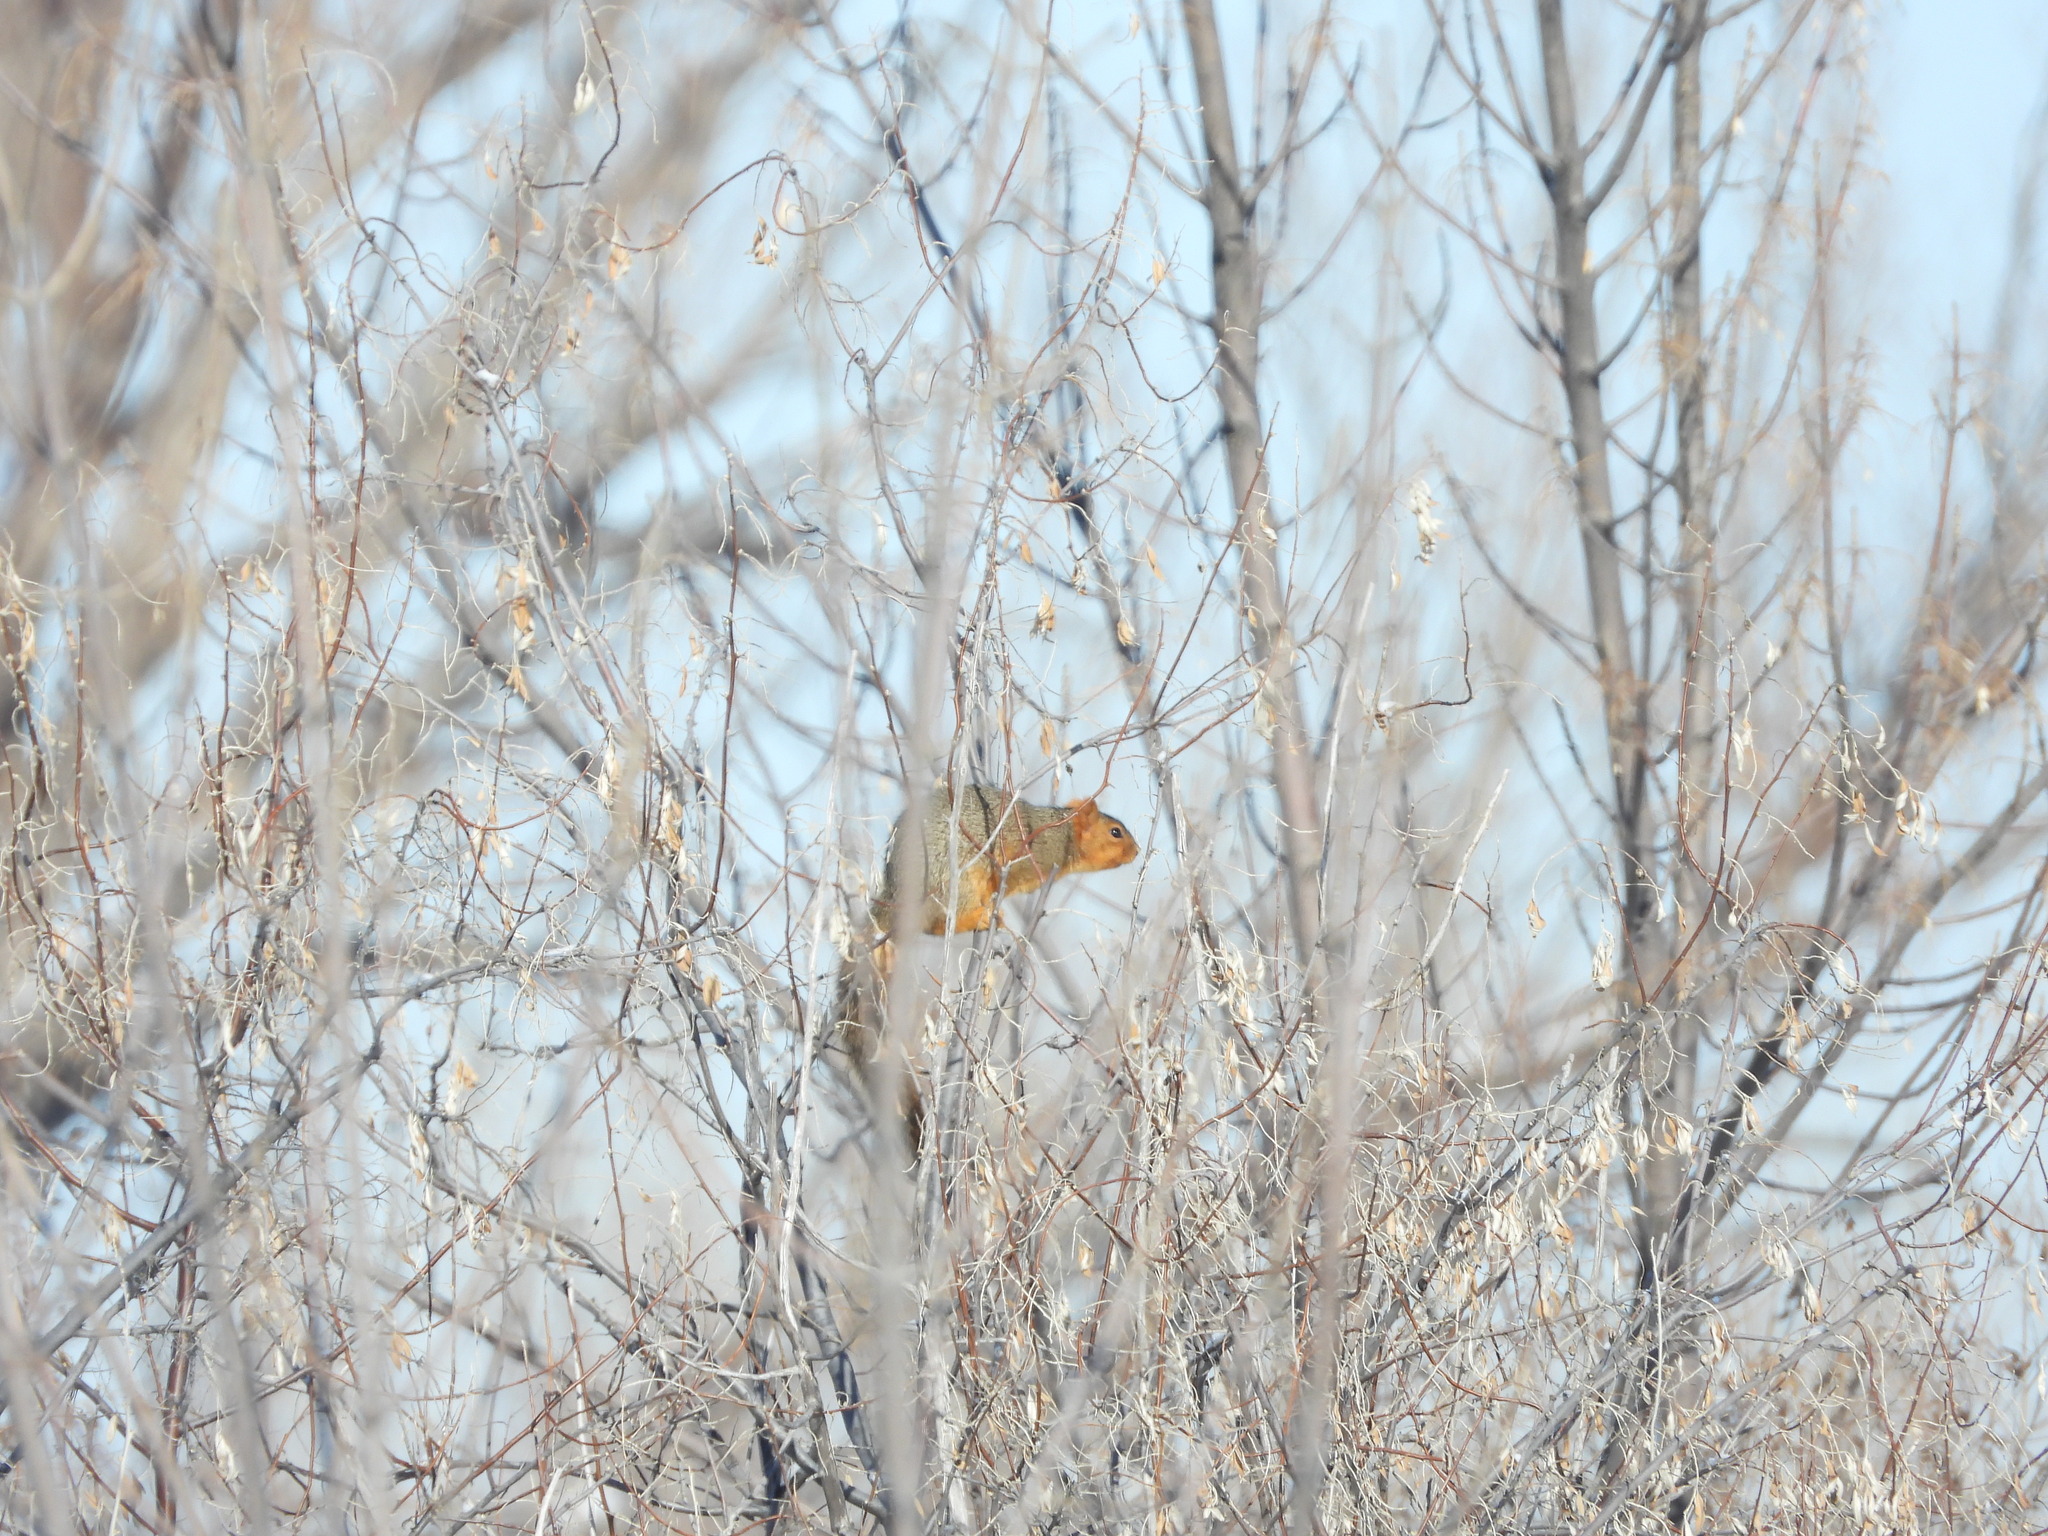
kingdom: Animalia
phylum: Chordata
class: Mammalia
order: Rodentia
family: Sciuridae
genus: Sciurus
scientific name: Sciurus niger
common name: Fox squirrel
